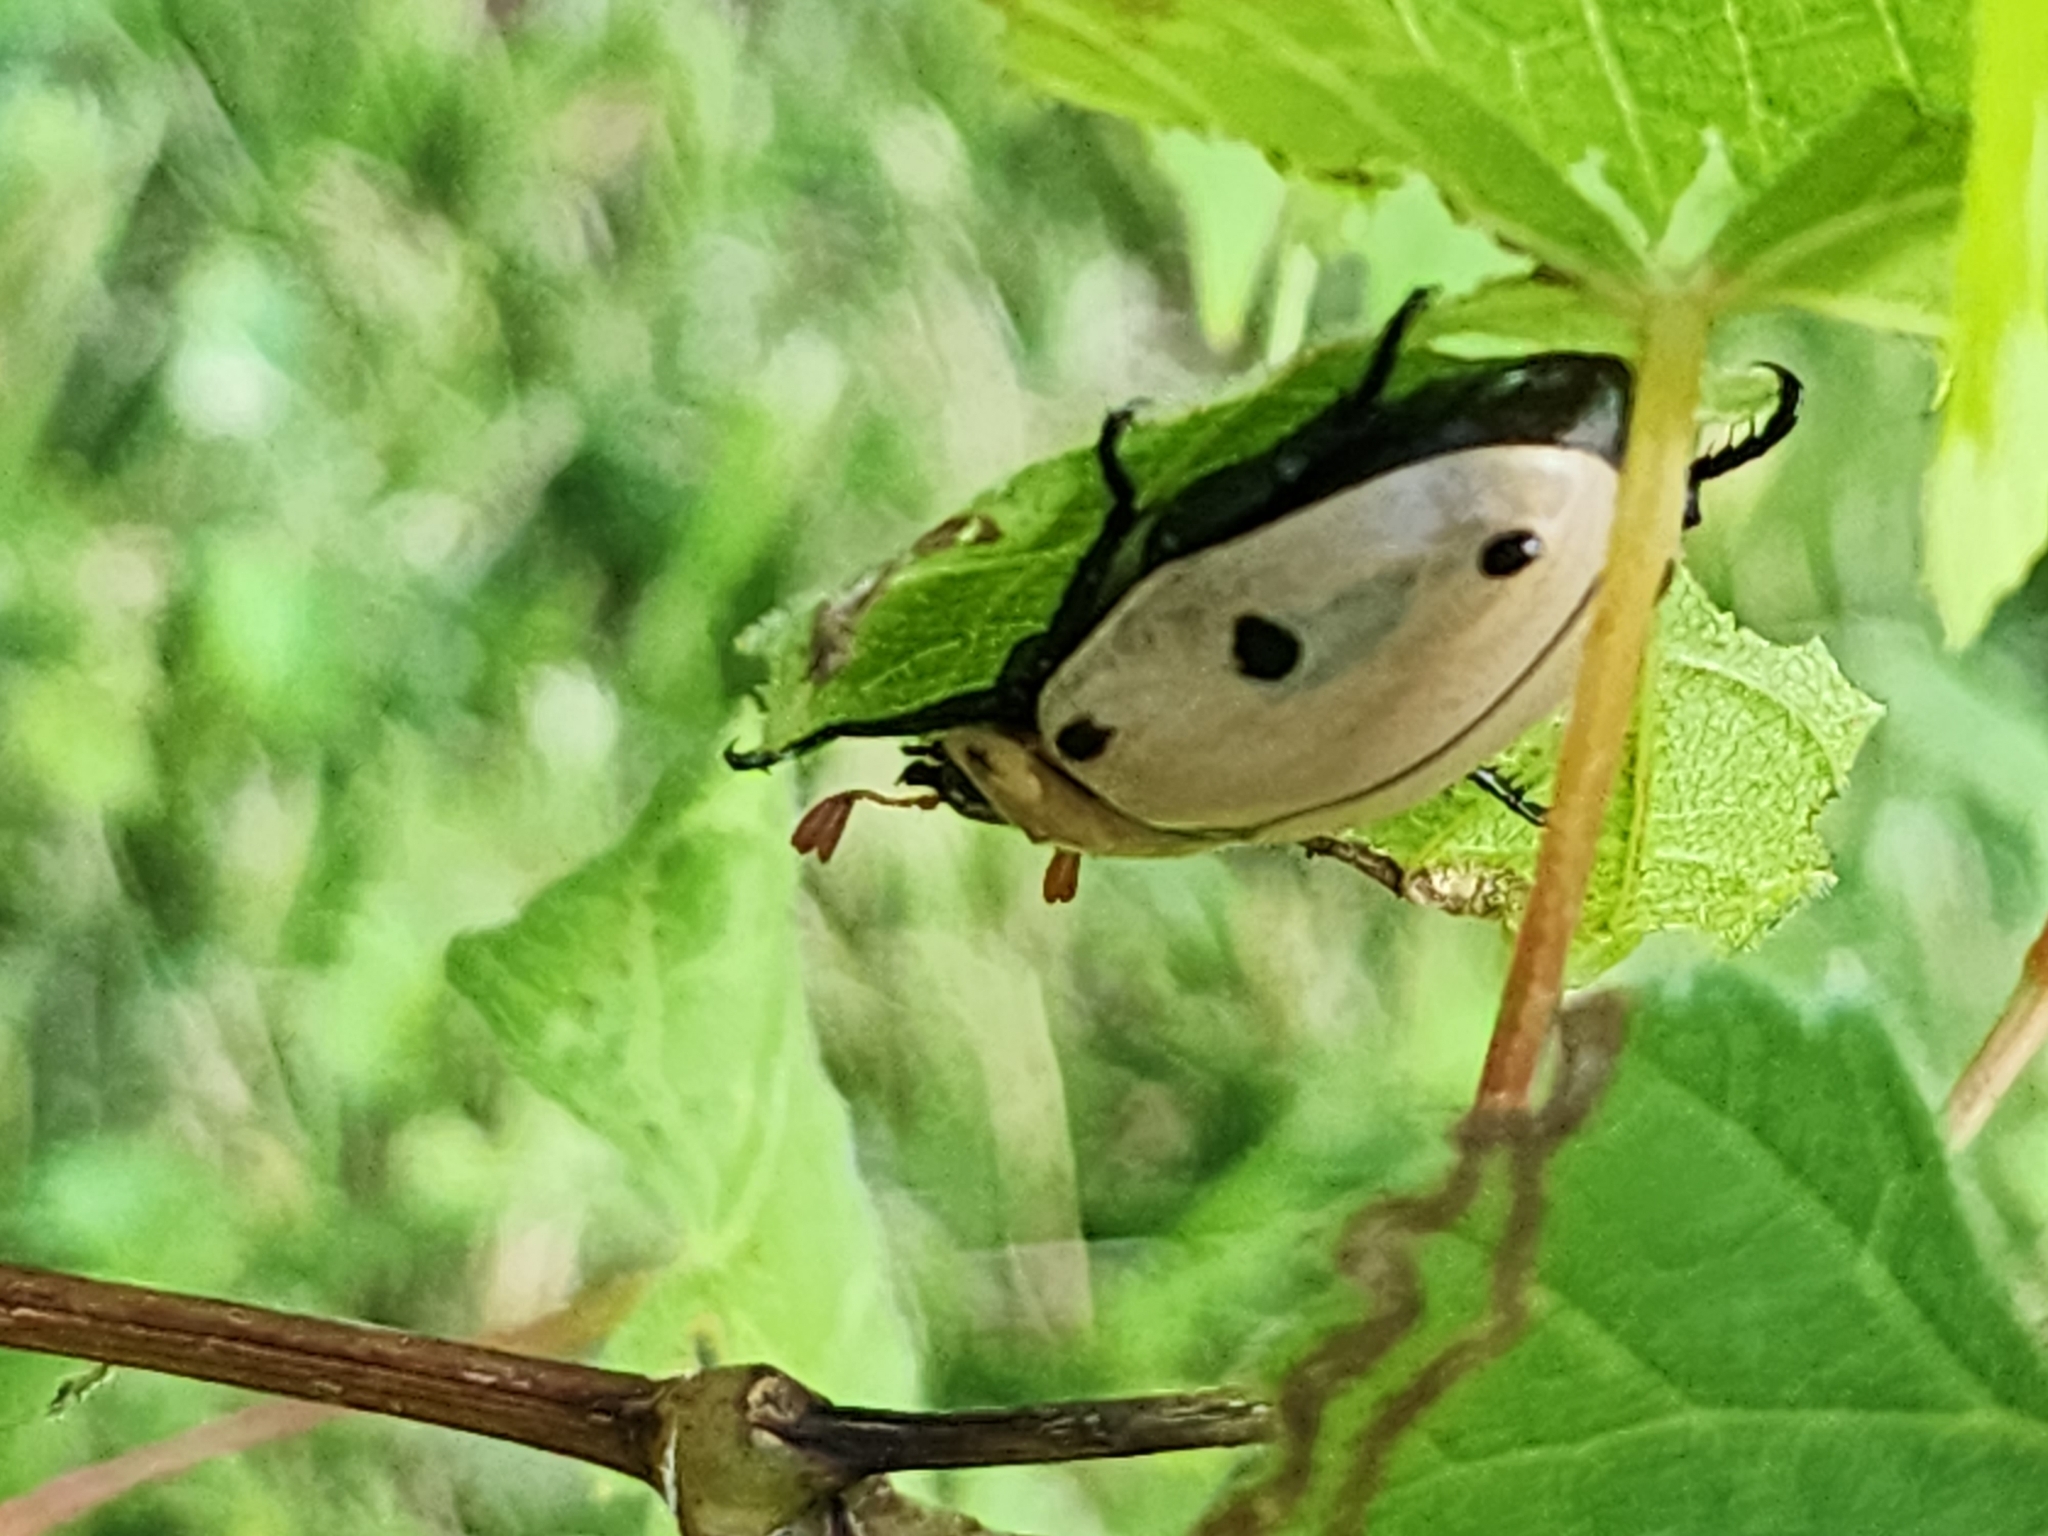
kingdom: Animalia
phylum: Arthropoda
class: Insecta
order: Coleoptera
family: Scarabaeidae
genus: Pelidnota
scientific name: Pelidnota punctata
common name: Grapevine beetle
